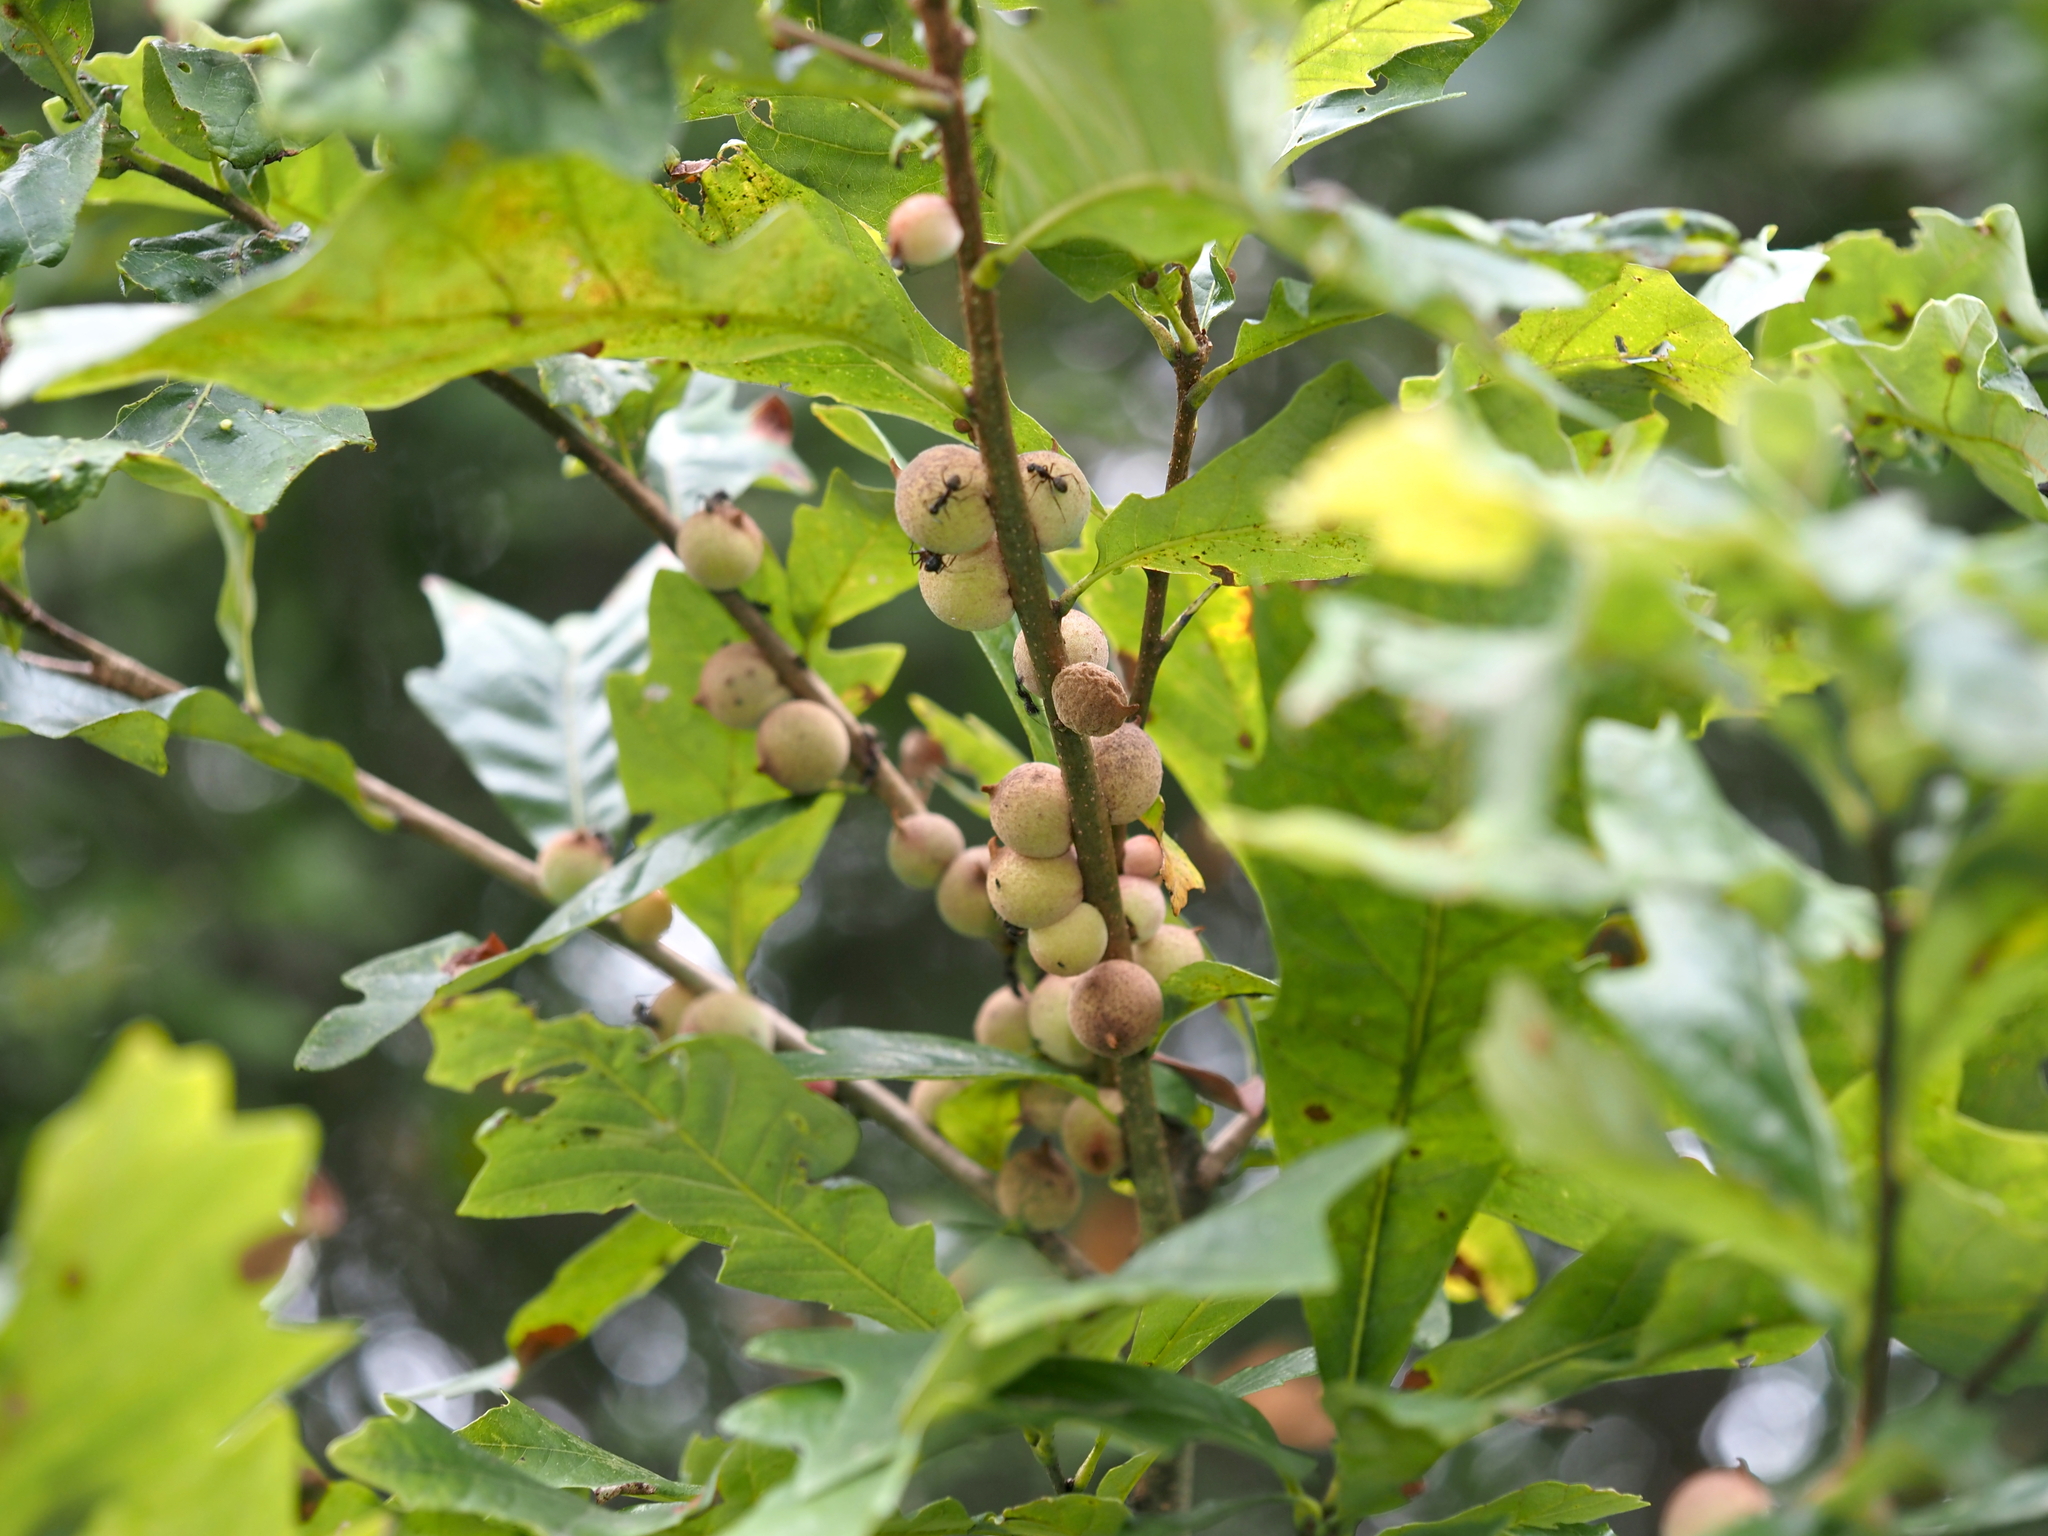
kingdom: Animalia
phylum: Arthropoda
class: Insecta
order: Hymenoptera
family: Cynipidae
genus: Disholcaspis
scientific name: Disholcaspis
